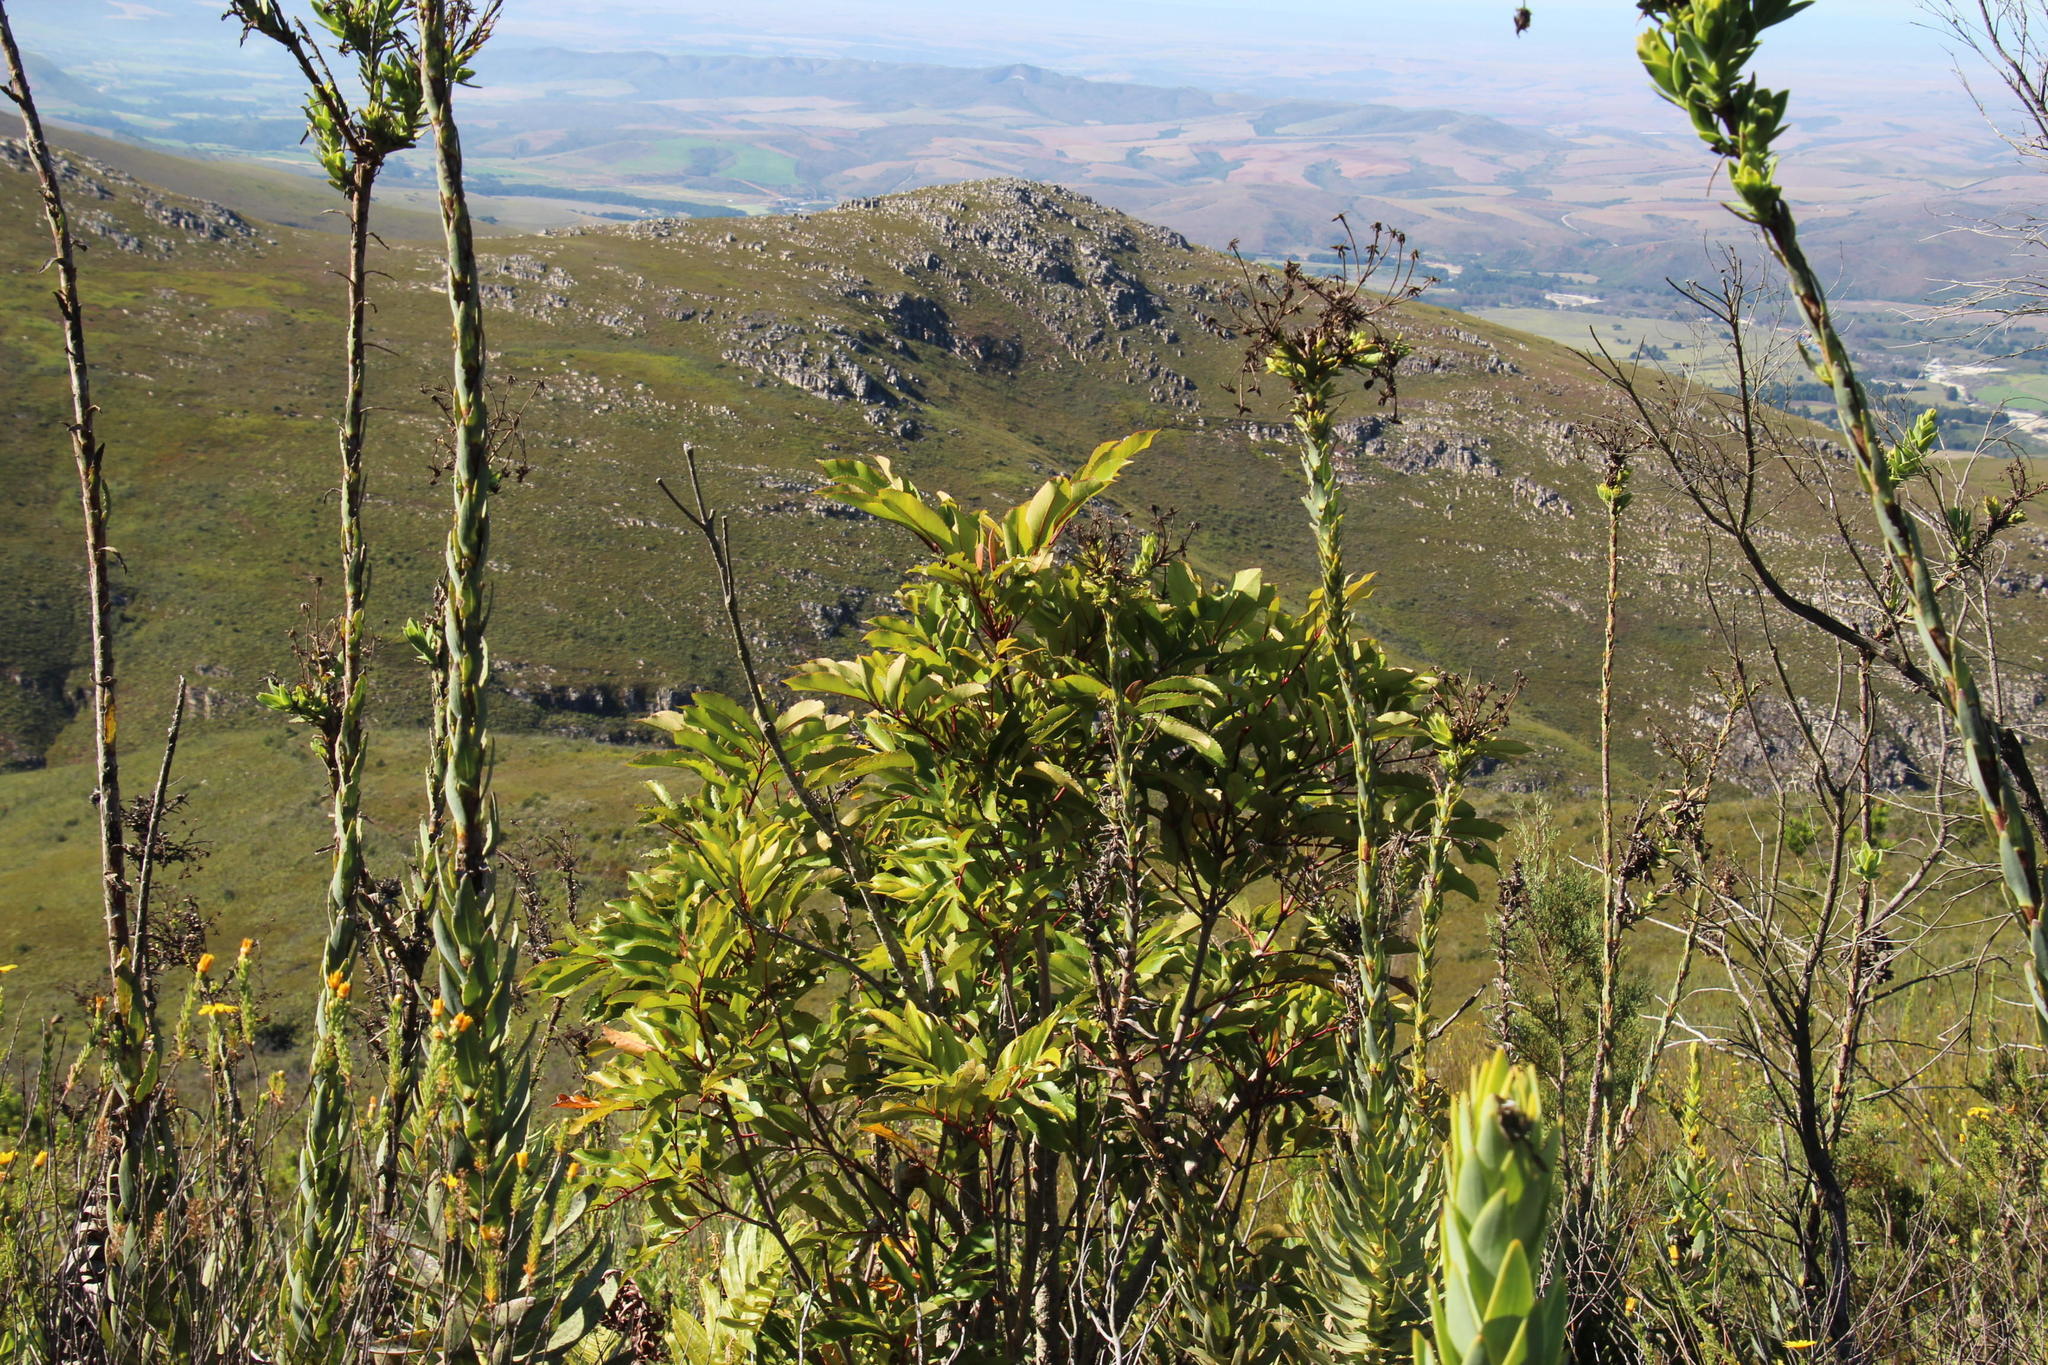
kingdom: Plantae
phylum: Tracheophyta
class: Magnoliopsida
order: Oxalidales
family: Cunoniaceae
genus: Cunonia
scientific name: Cunonia capensis
